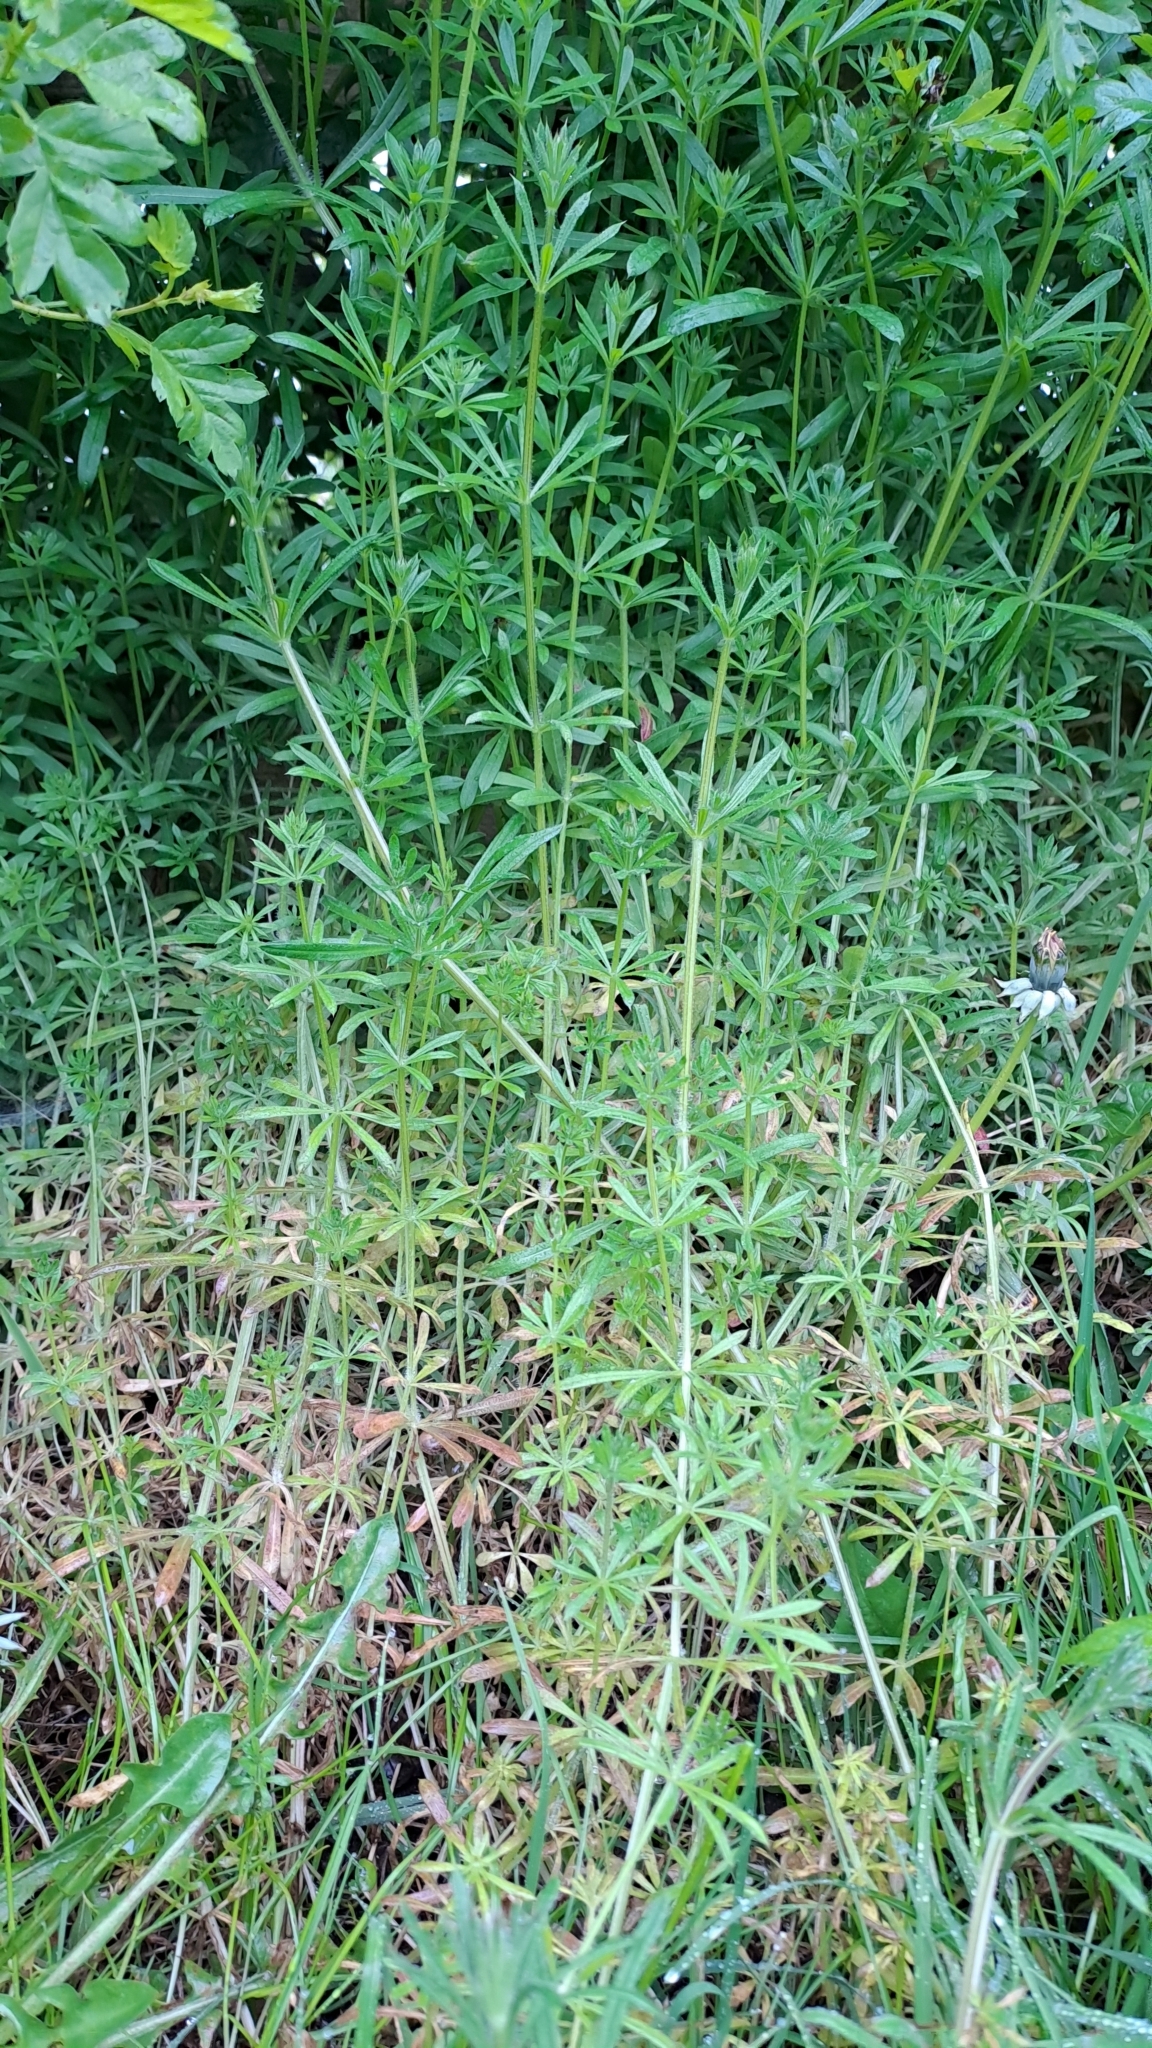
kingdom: Plantae
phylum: Tracheophyta
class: Magnoliopsida
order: Gentianales
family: Rubiaceae
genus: Galium
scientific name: Galium aparine
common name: Cleavers
